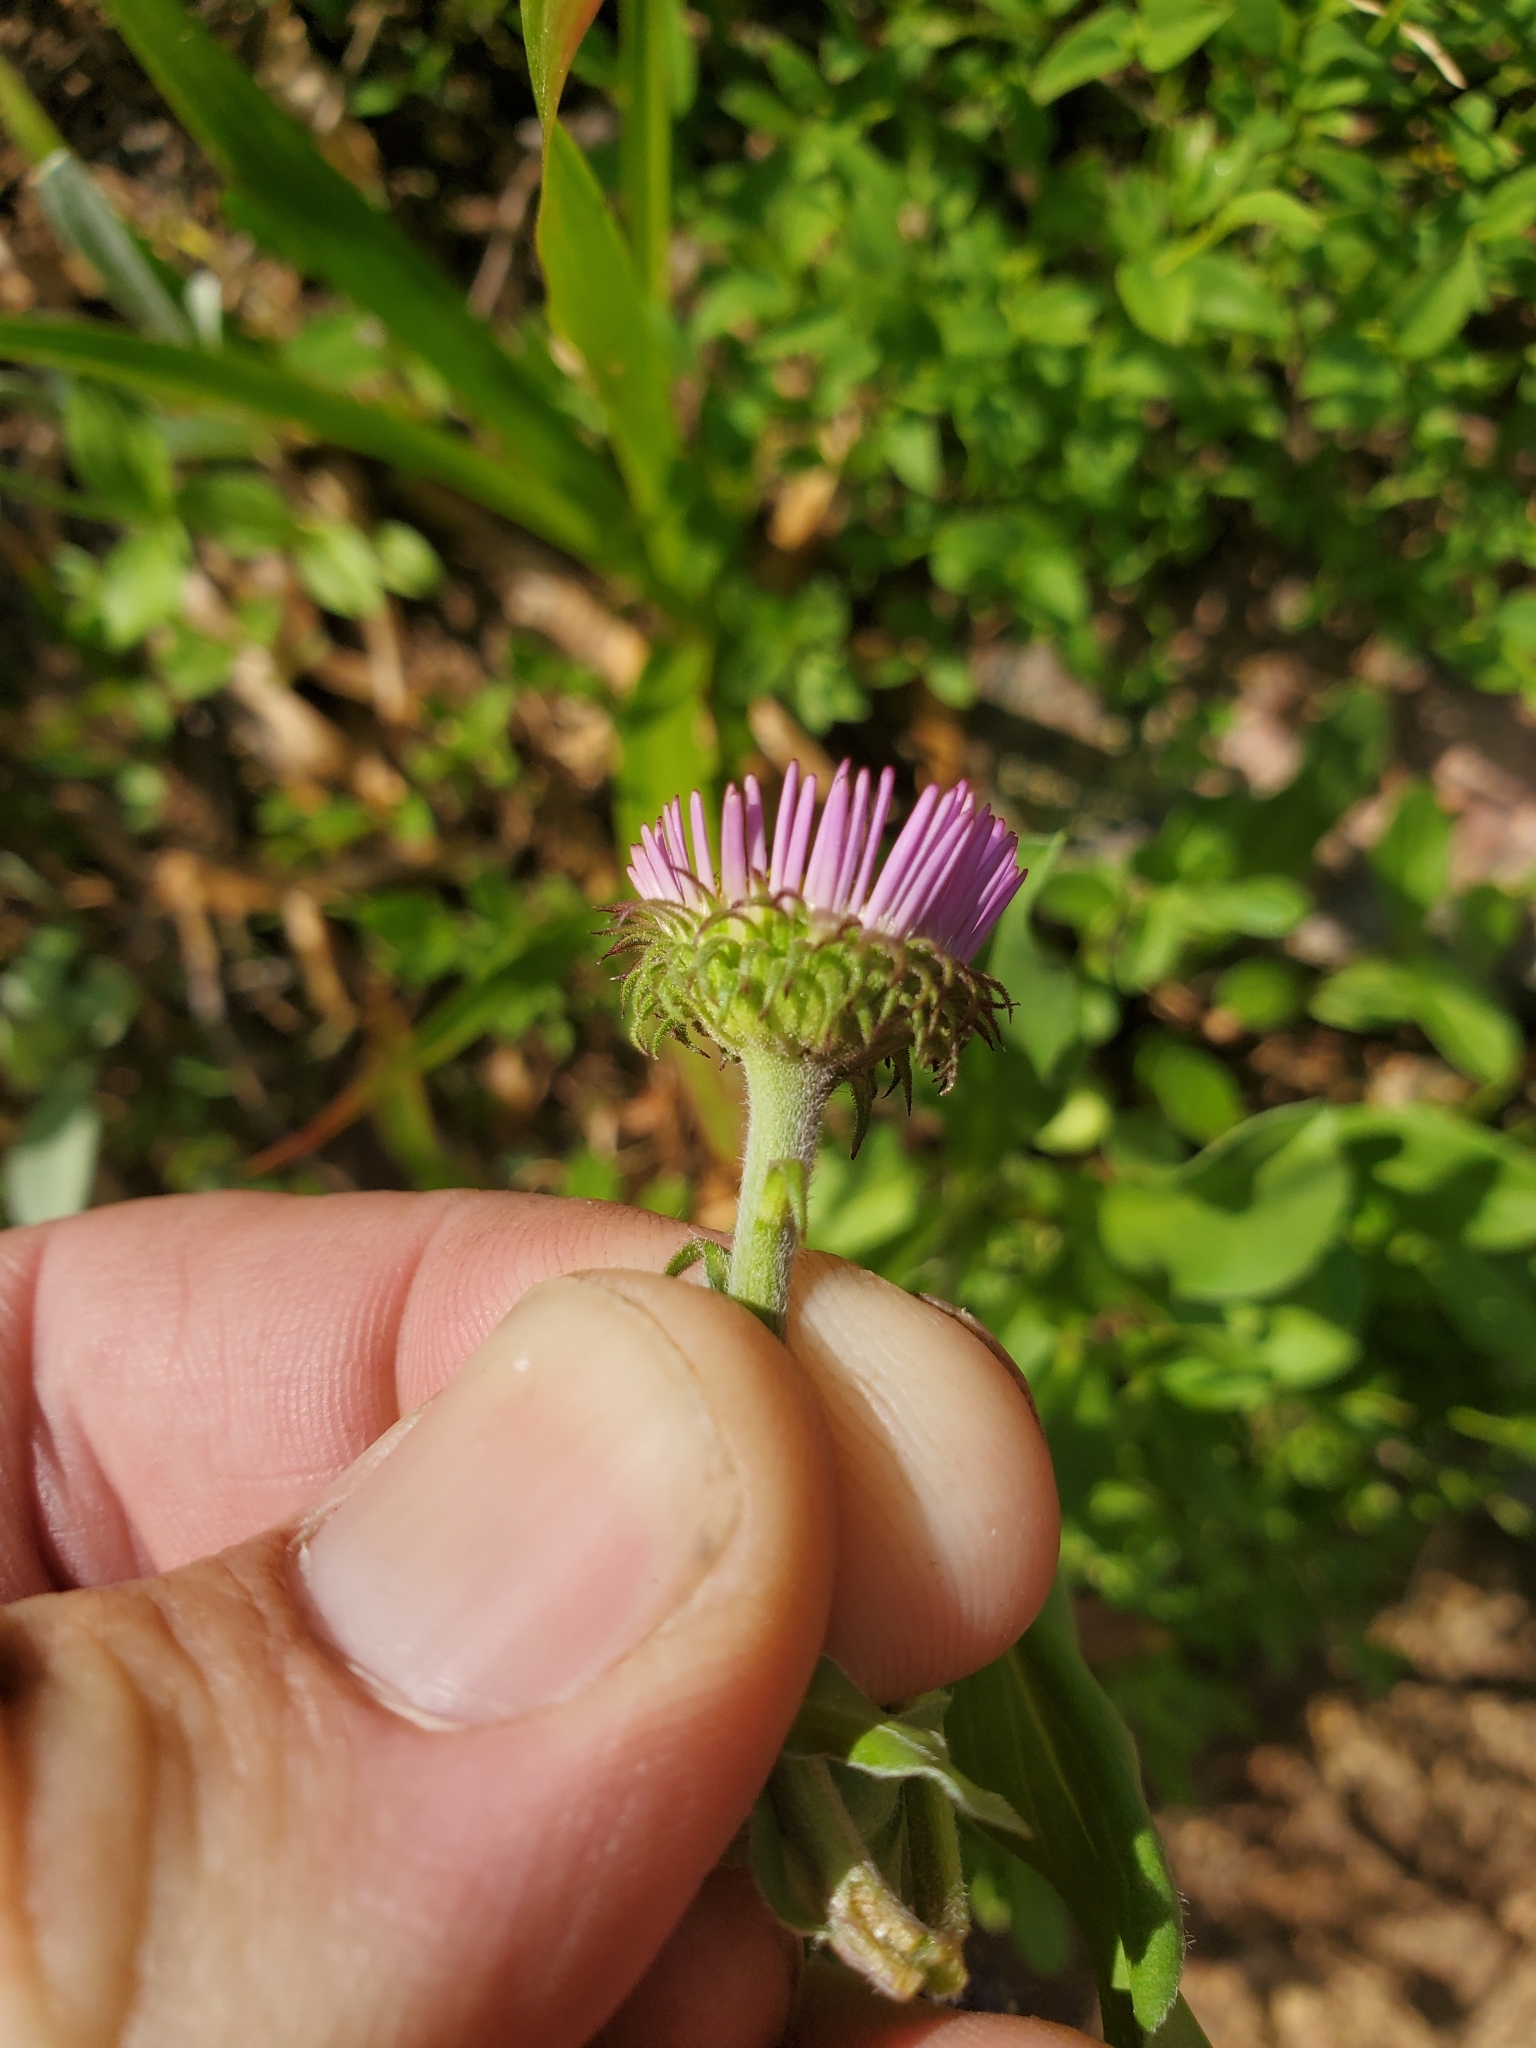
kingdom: Plantae
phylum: Tracheophyta
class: Magnoliopsida
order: Asterales
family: Asteraceae
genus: Erigeron
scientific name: Erigeron glacialis
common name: Subalpine fleabane
